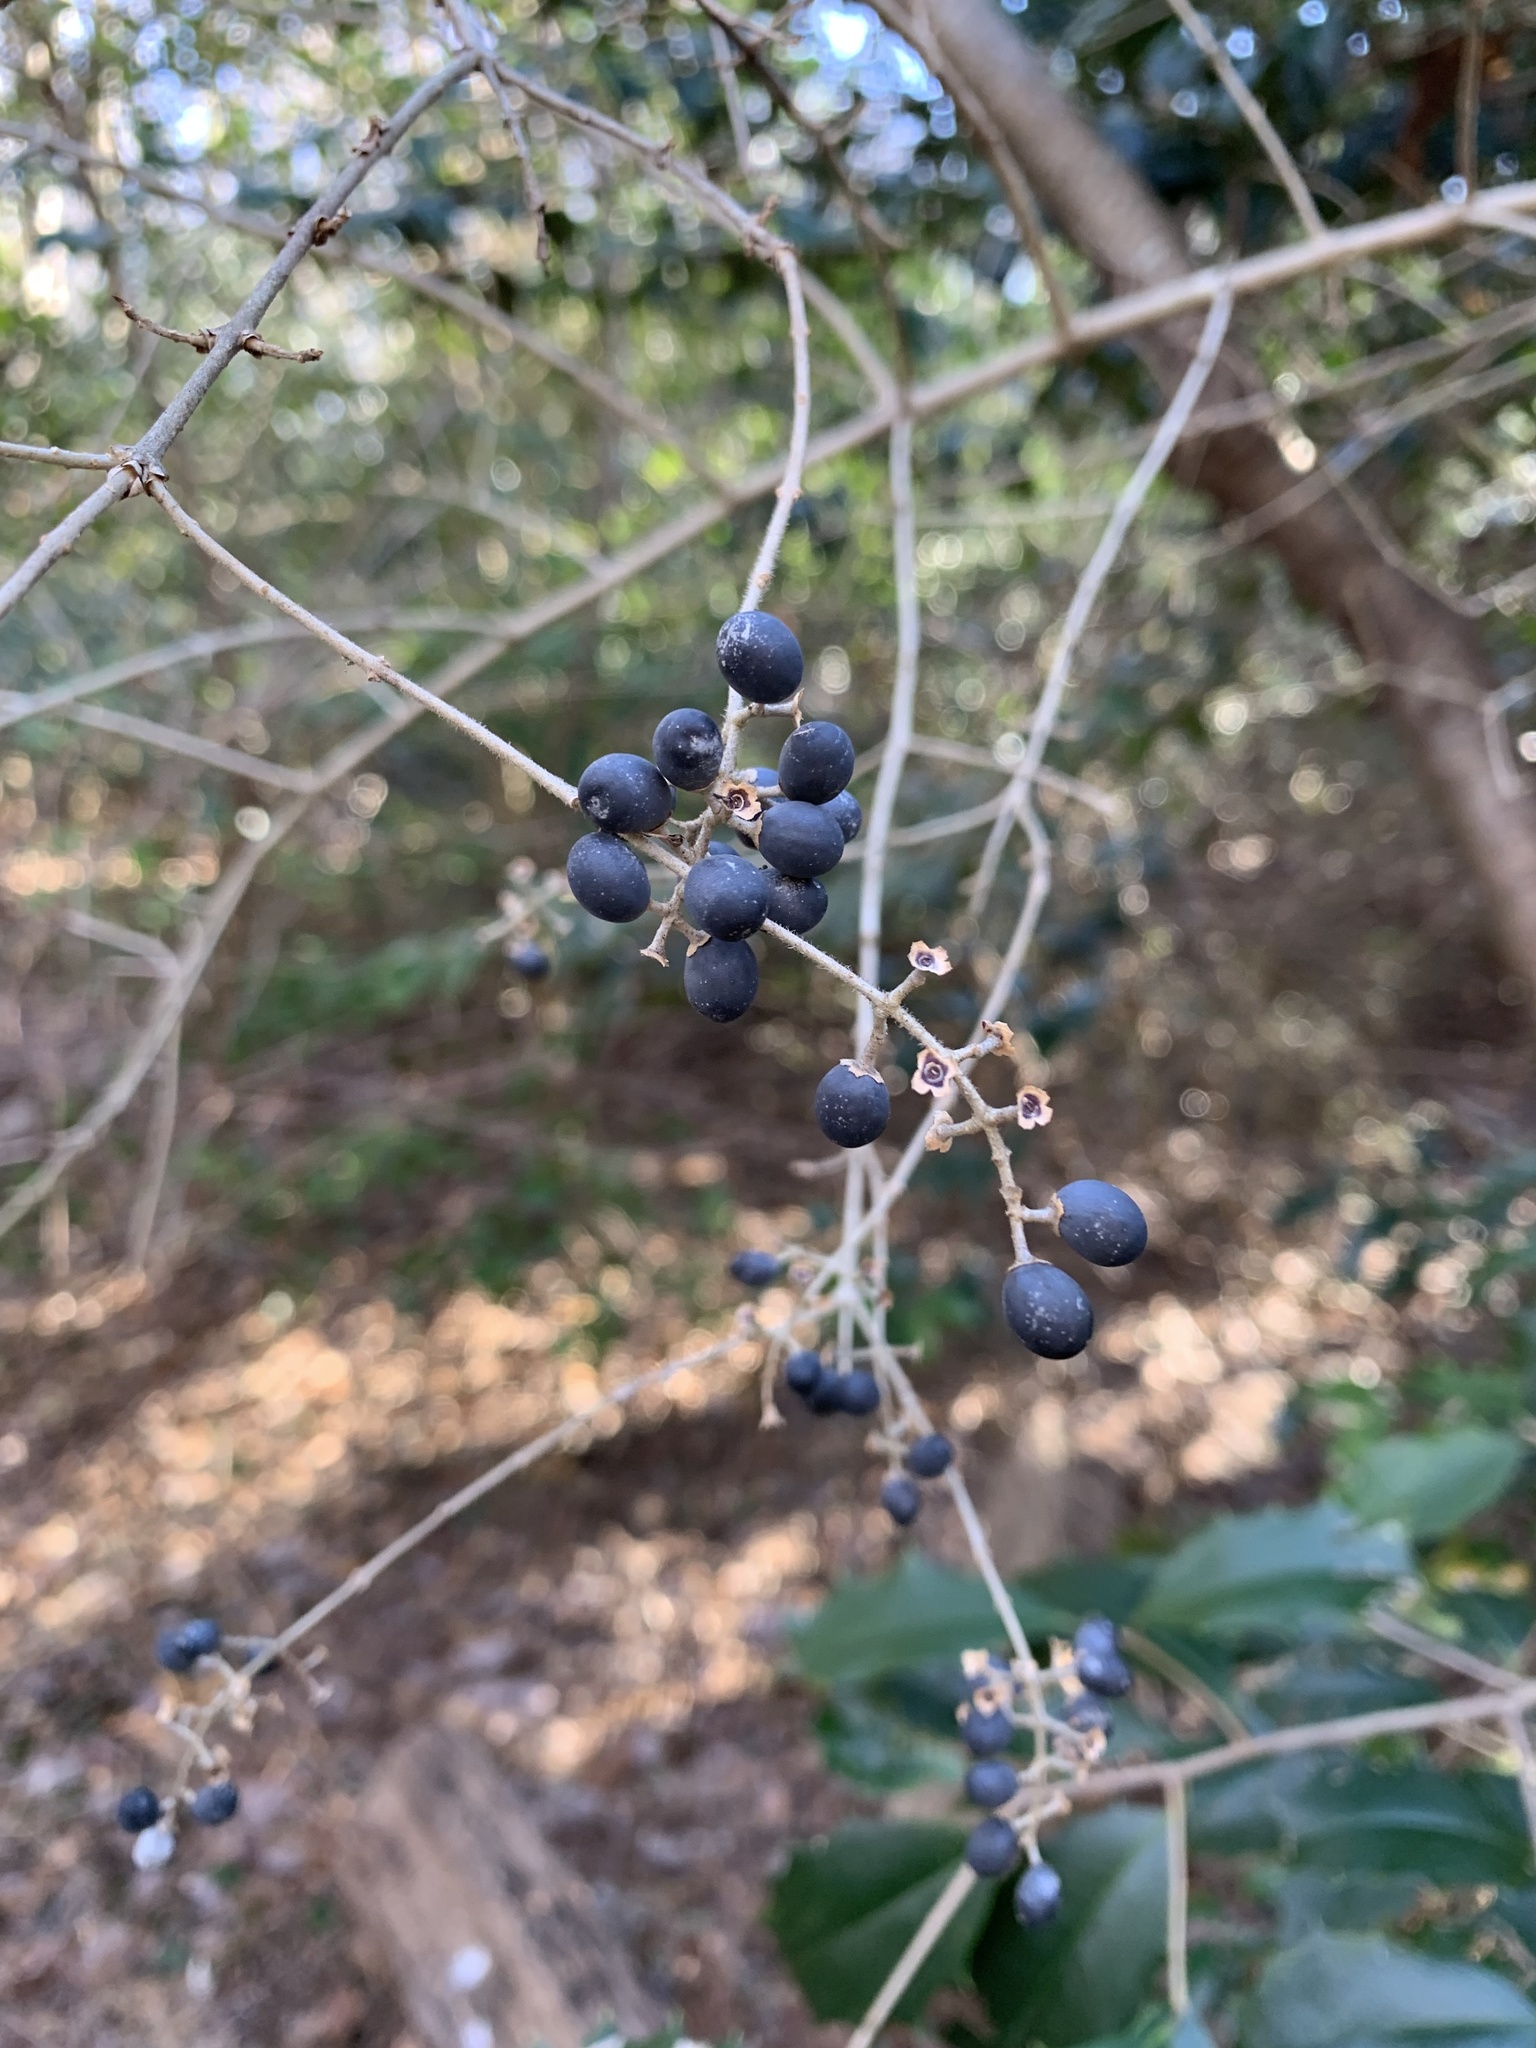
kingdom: Plantae
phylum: Tracheophyta
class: Magnoliopsida
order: Lamiales
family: Oleaceae
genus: Ligustrum
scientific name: Ligustrum obtusifolium
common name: Border privet
